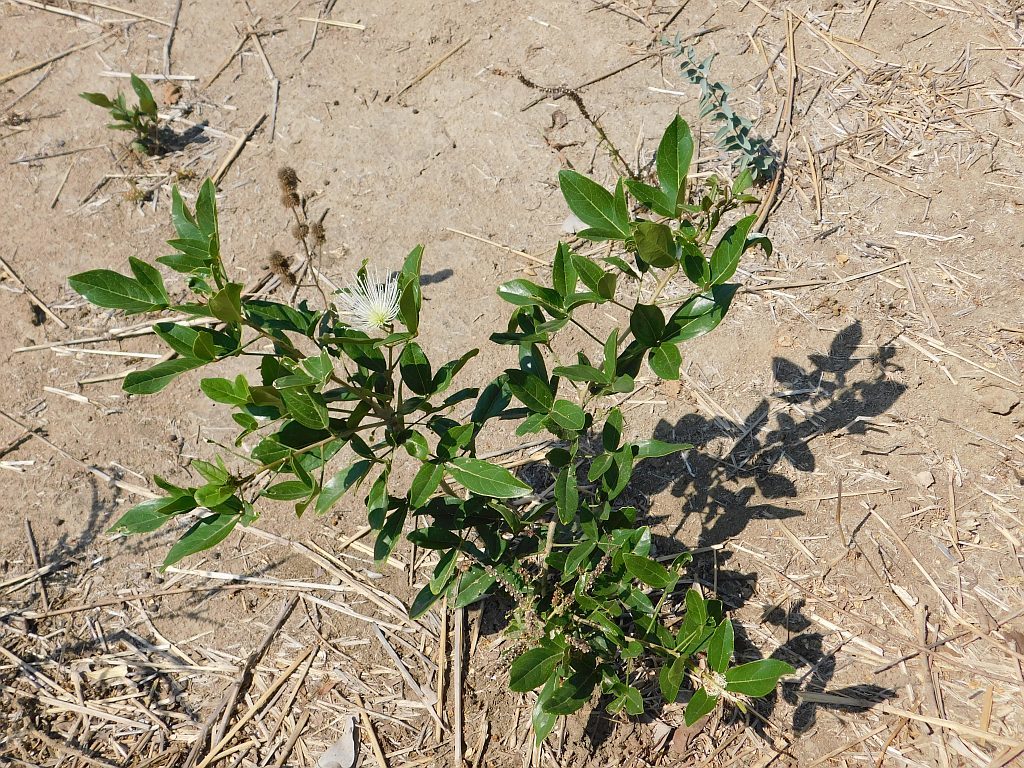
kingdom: Plantae
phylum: Tracheophyta
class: Magnoliopsida
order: Brassicales
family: Capparaceae
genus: Thilachium
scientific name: Thilachium africanum
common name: Cucumber bush
